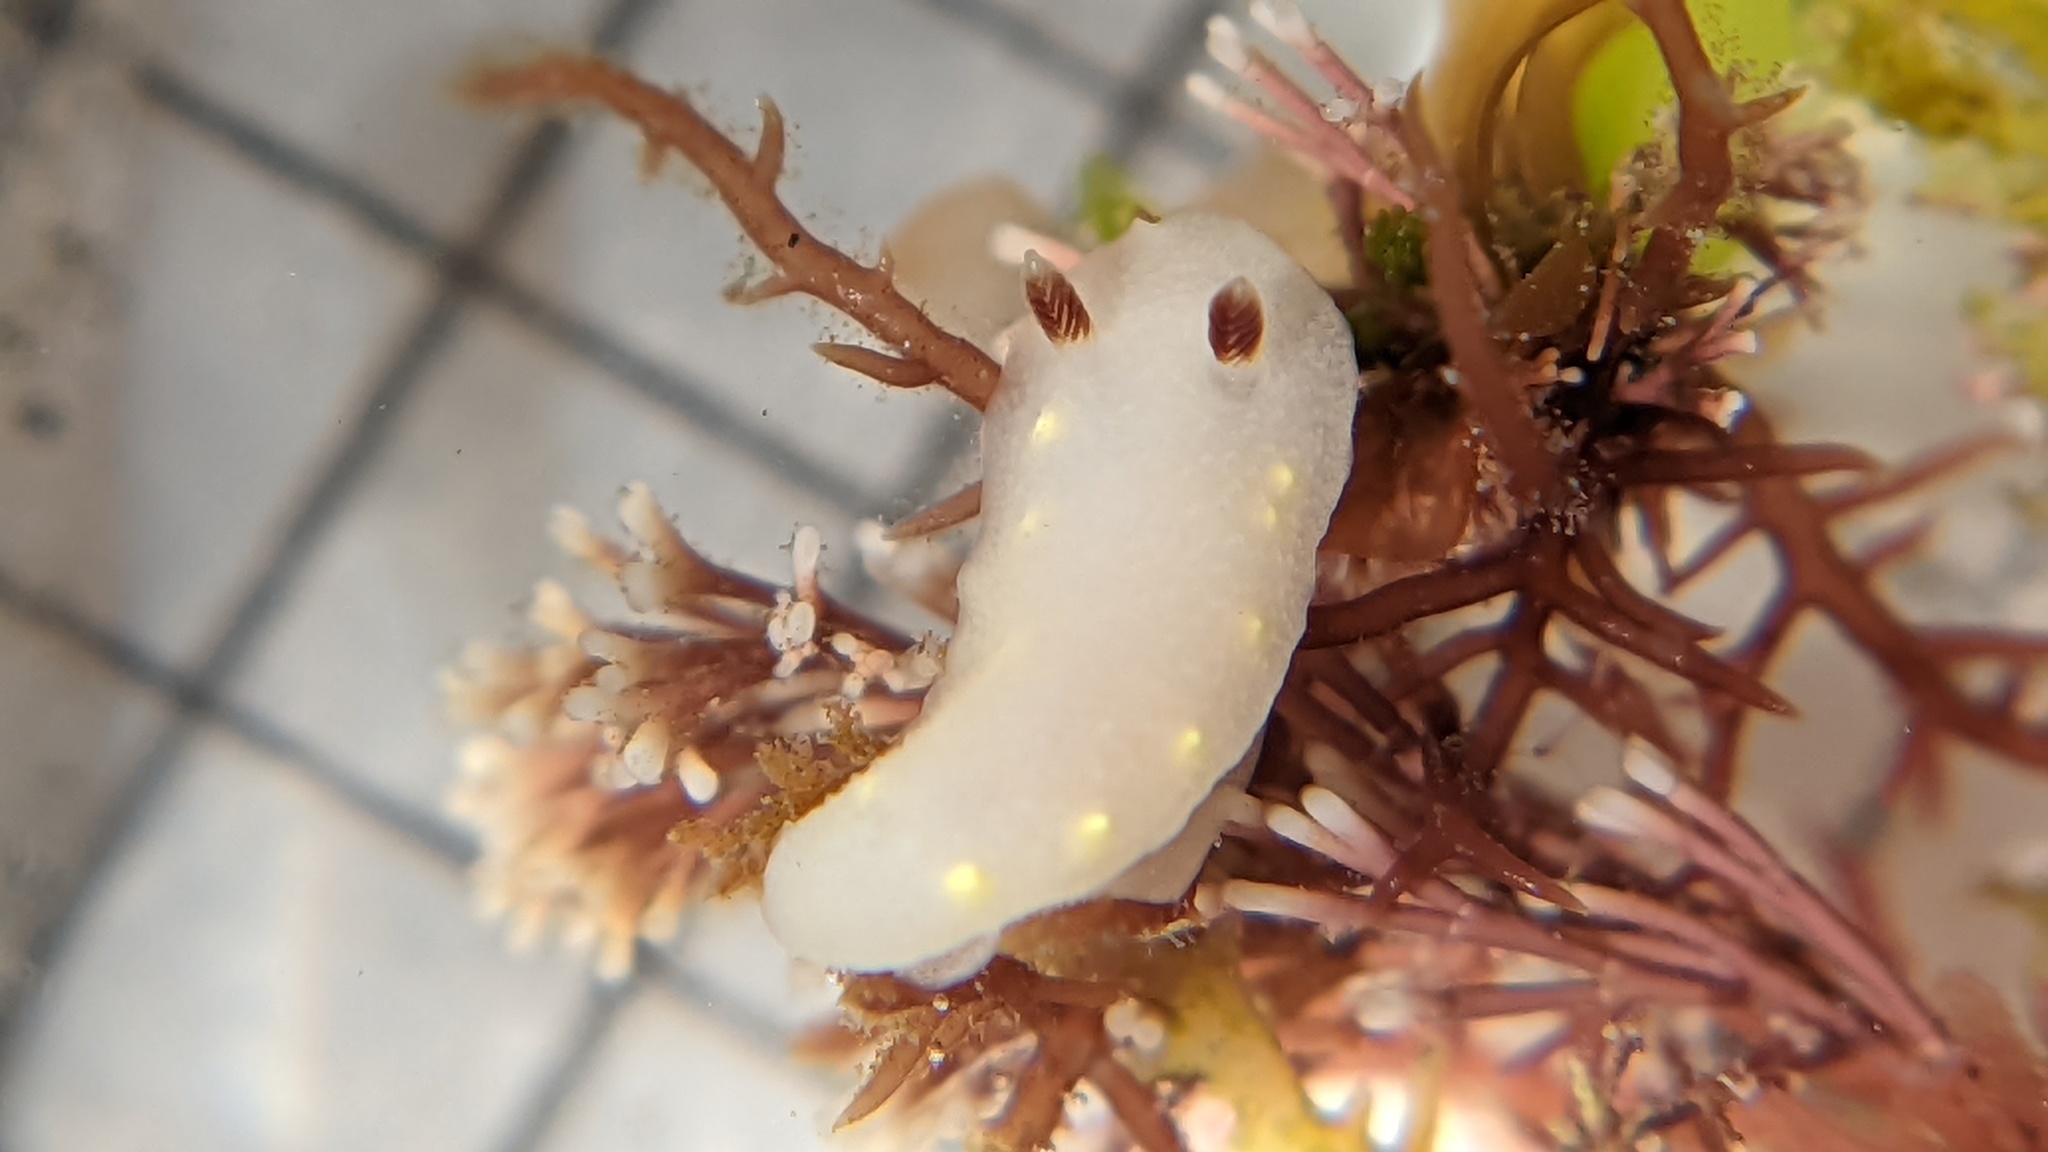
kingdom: Animalia
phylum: Mollusca
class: Gastropoda
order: Nudibranchia
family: Cadlinidae
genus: Cadlina
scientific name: Cadlina flavomaculata
